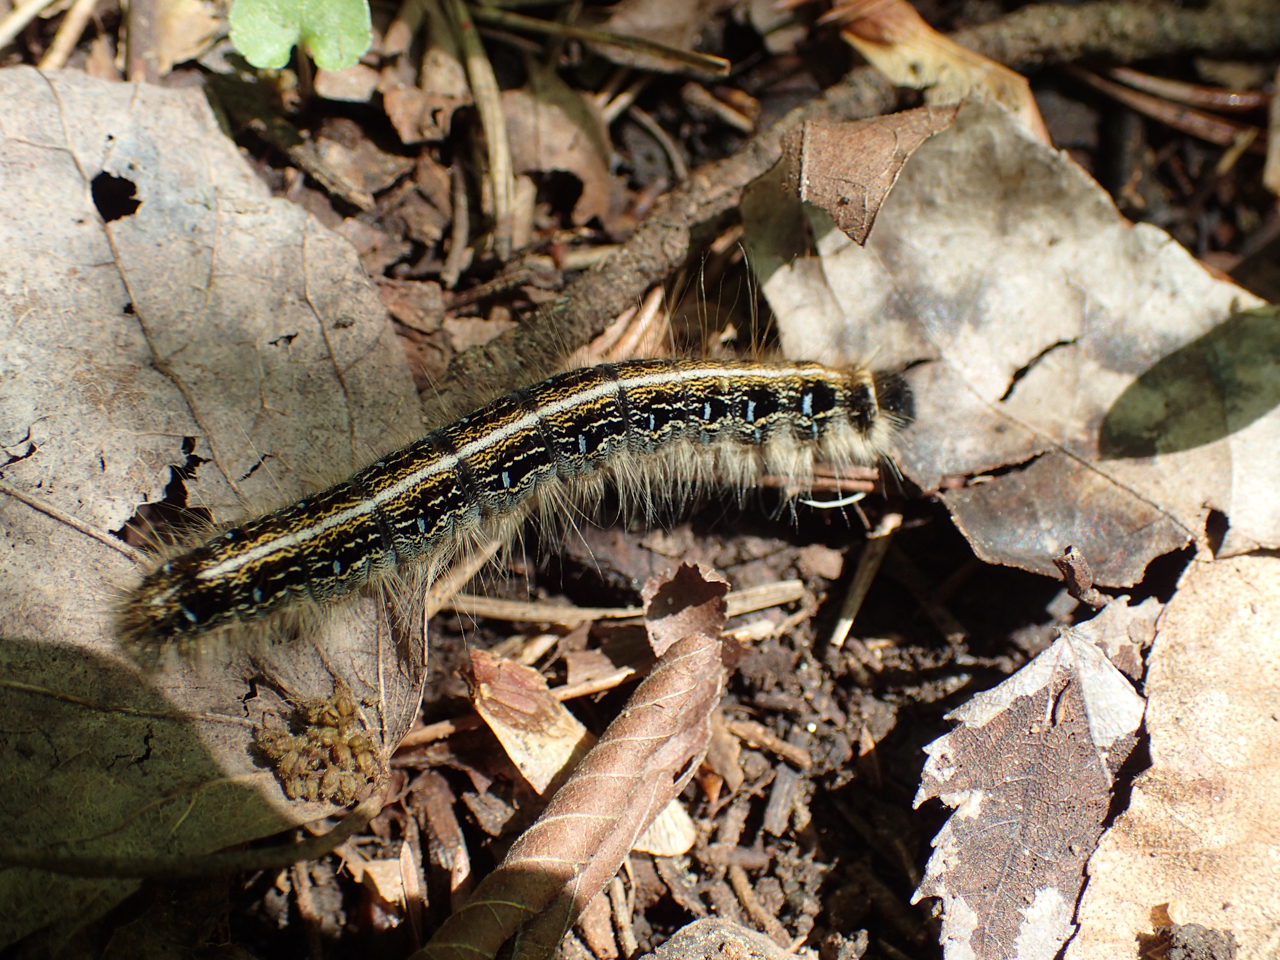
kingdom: Animalia
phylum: Arthropoda
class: Insecta
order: Lepidoptera
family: Lasiocampidae
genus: Malacosoma
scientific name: Malacosoma americana
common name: Eastern tent caterpillar moth
